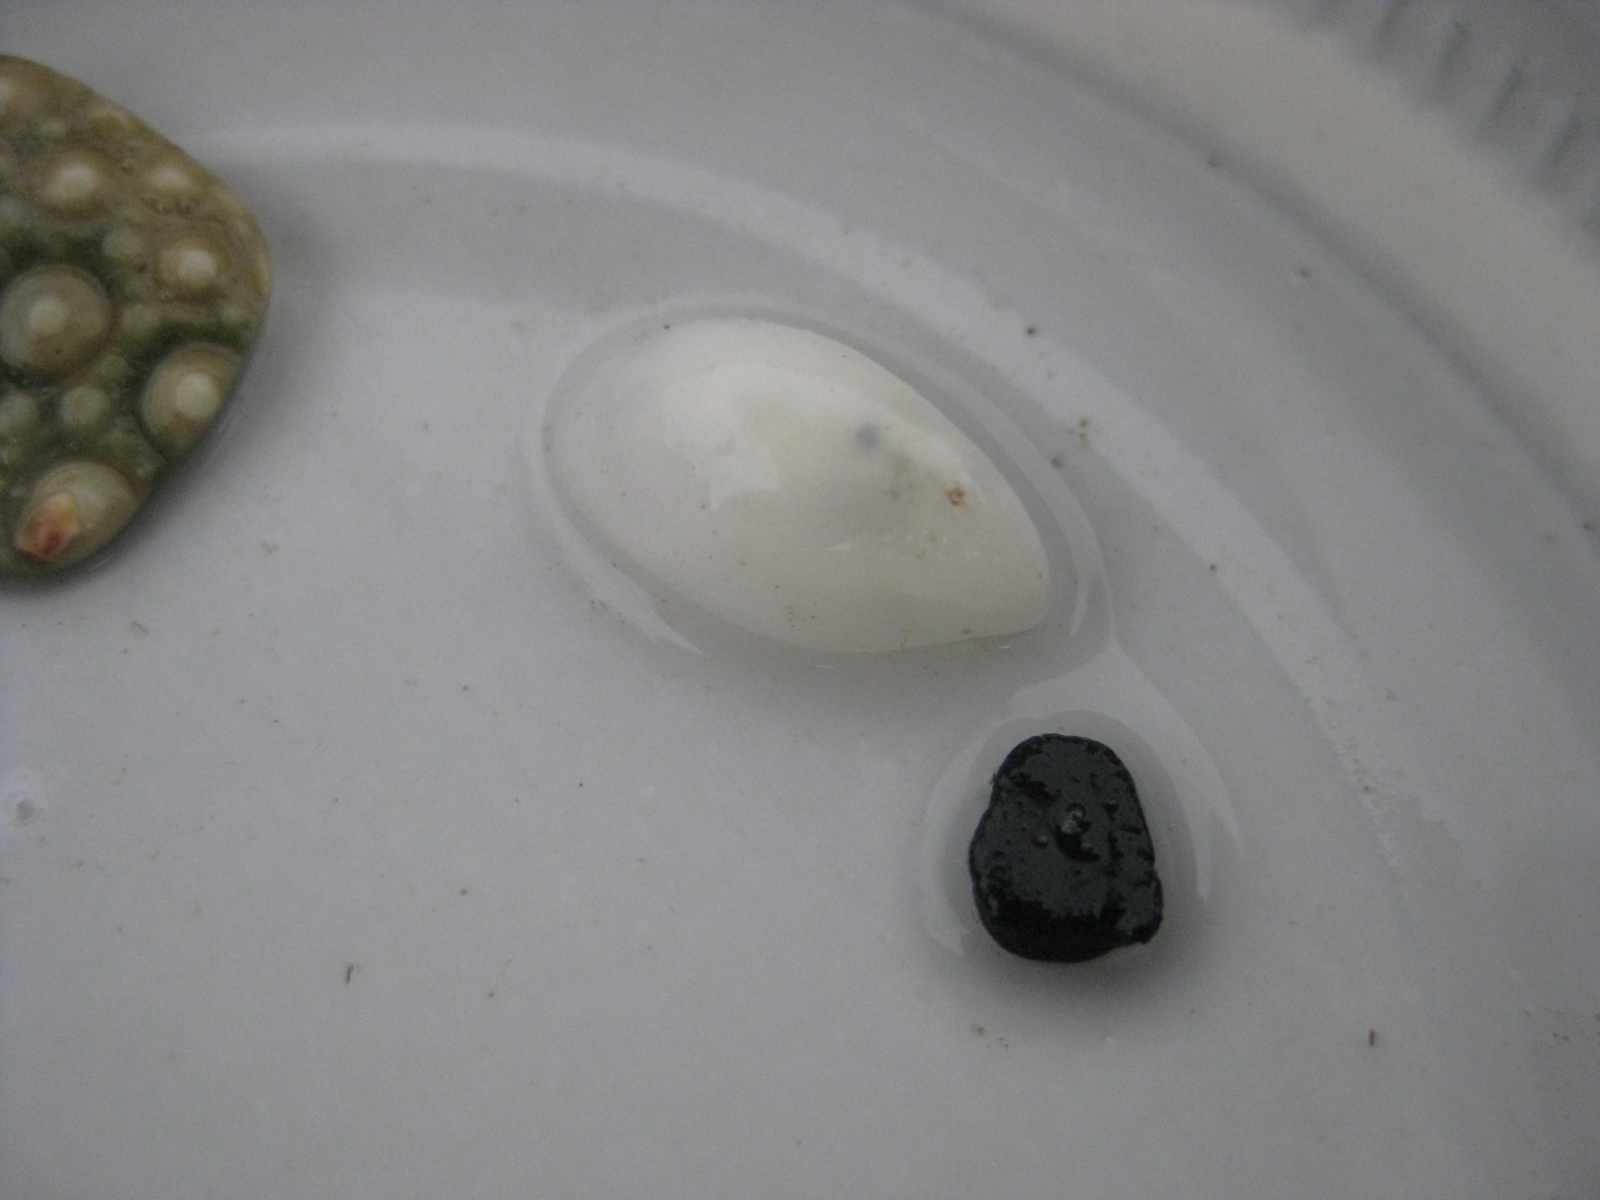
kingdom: Animalia
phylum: Mollusca
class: Gastropoda
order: Littorinimorpha
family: Calyptraeidae
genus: Maoricrypta
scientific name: Maoricrypta monoxyla
